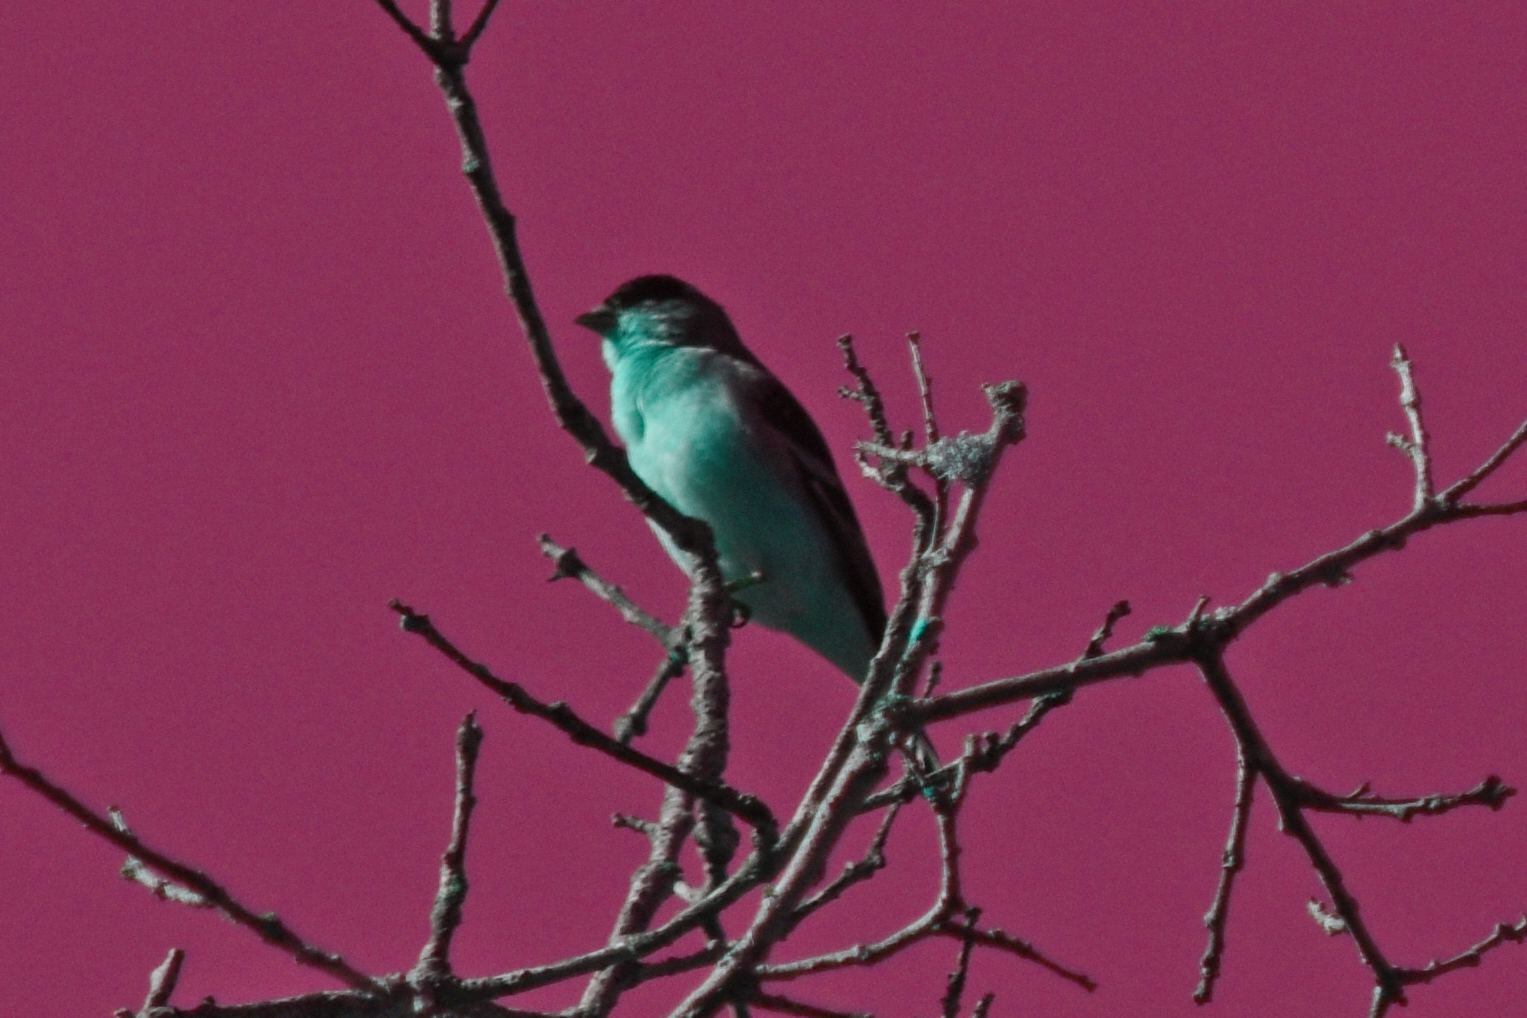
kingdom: Animalia
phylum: Chordata
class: Aves
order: Passeriformes
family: Fringillidae
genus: Spinus
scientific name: Spinus psaltria
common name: Lesser goldfinch
